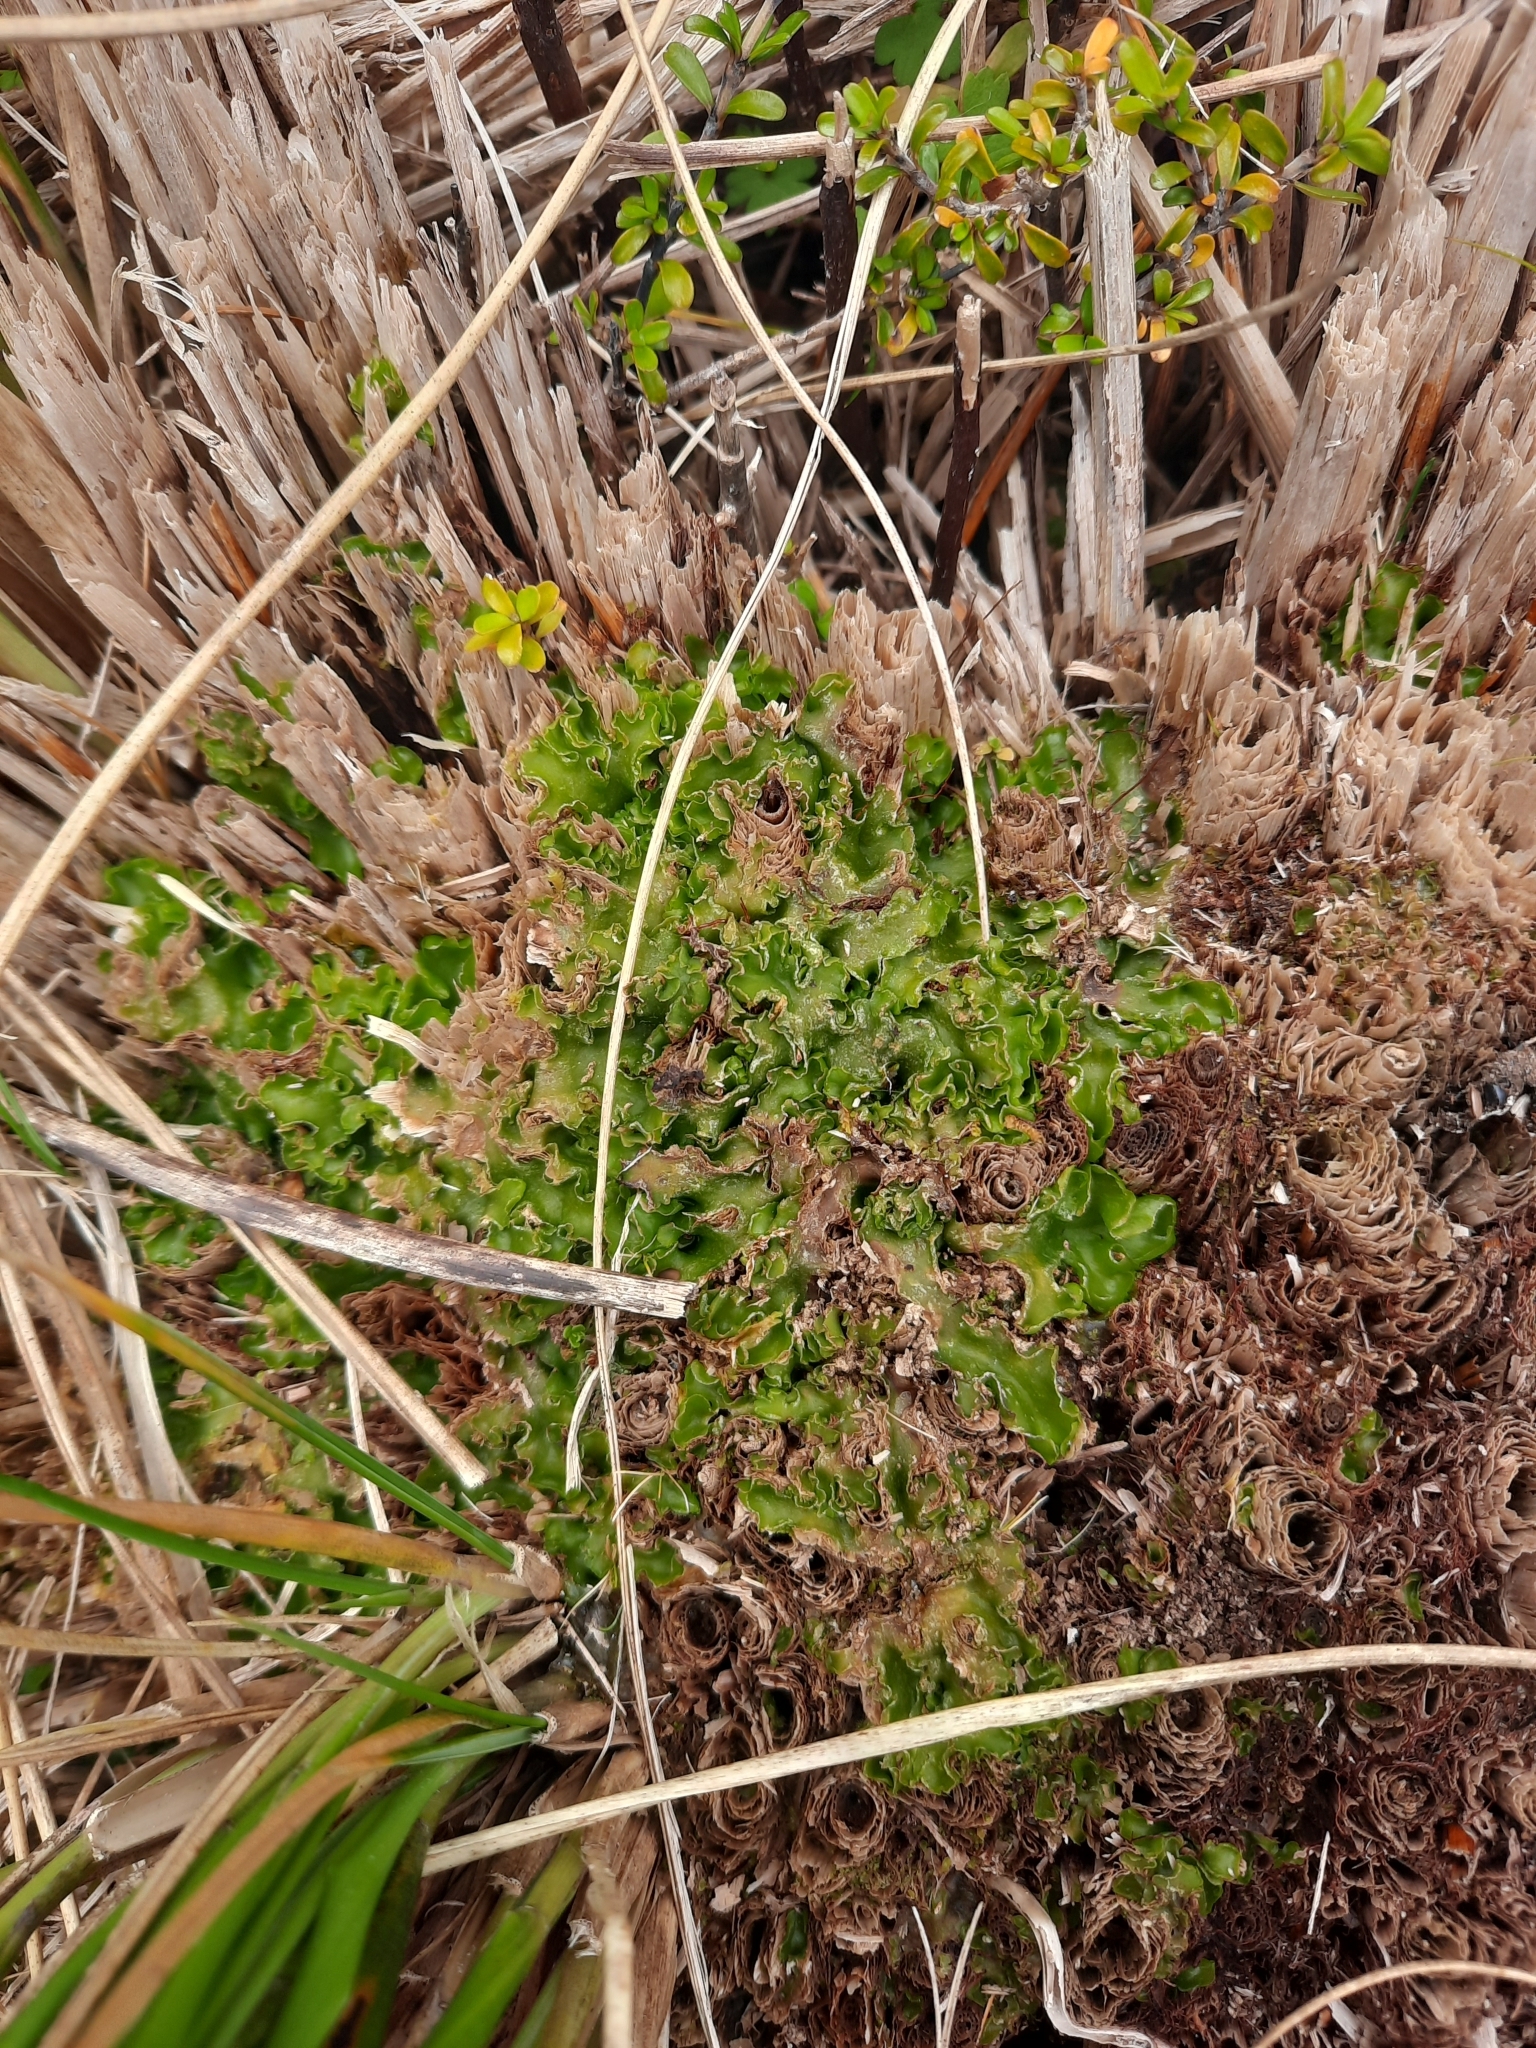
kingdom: Plantae
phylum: Marchantiophyta
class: Jungermanniopsida
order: Metzgeriales
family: Aneuraceae
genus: Riccardia
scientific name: Riccardia cochleata
